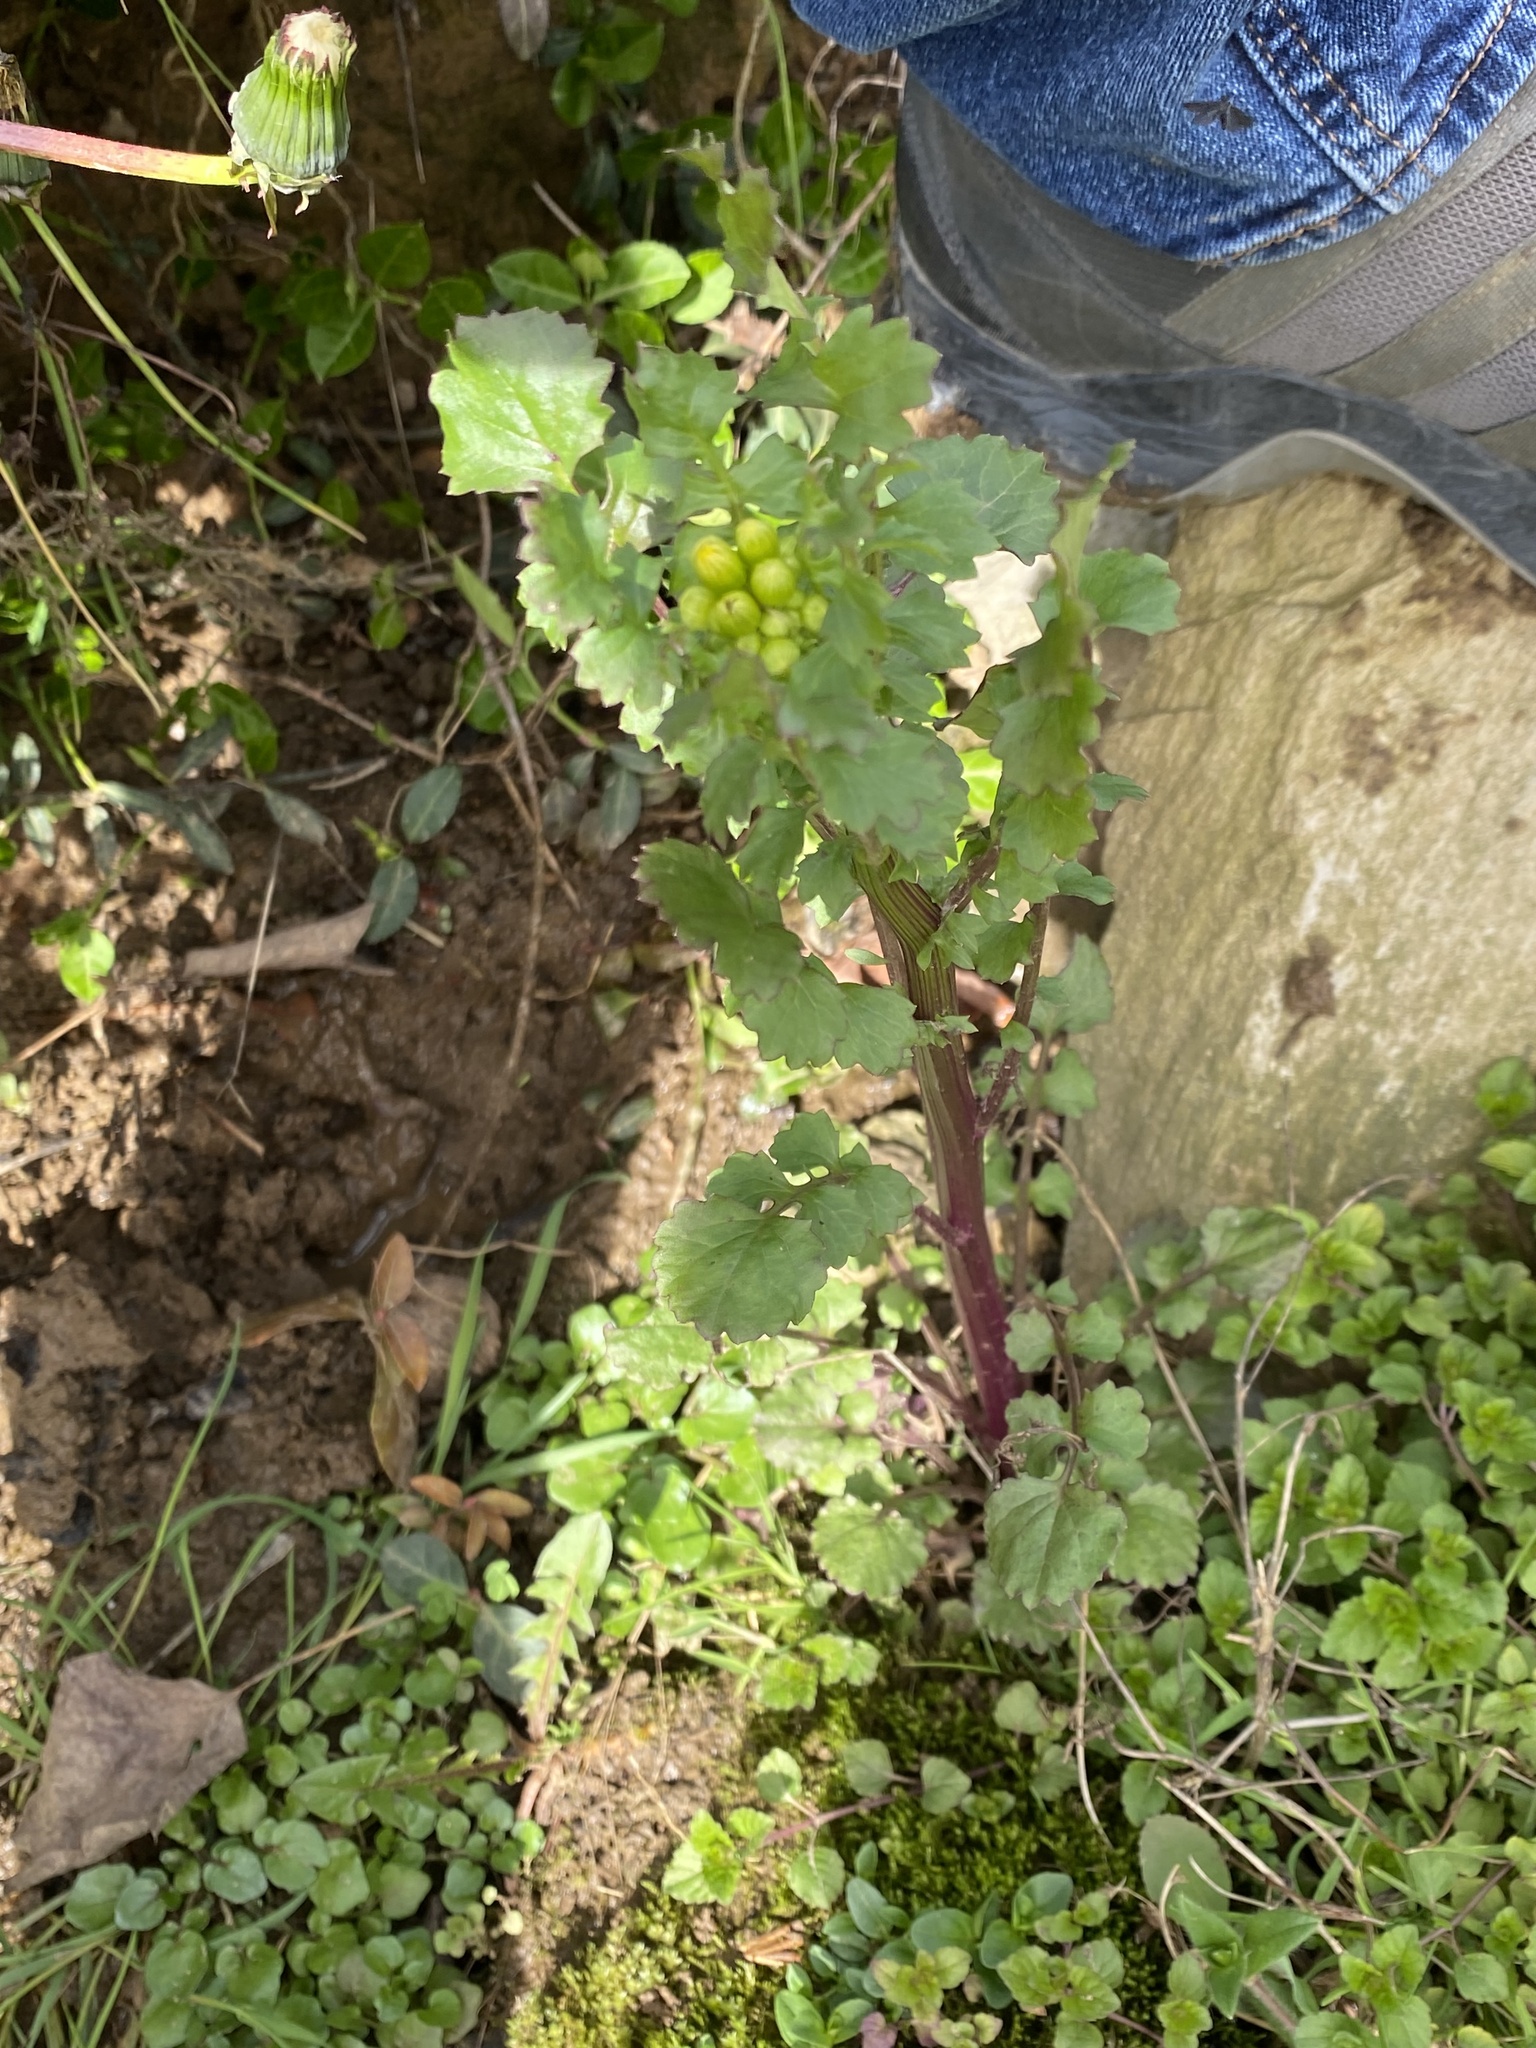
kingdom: Plantae
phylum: Tracheophyta
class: Magnoliopsida
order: Asterales
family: Asteraceae
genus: Packera
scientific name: Packera glabella
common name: Butterweed
